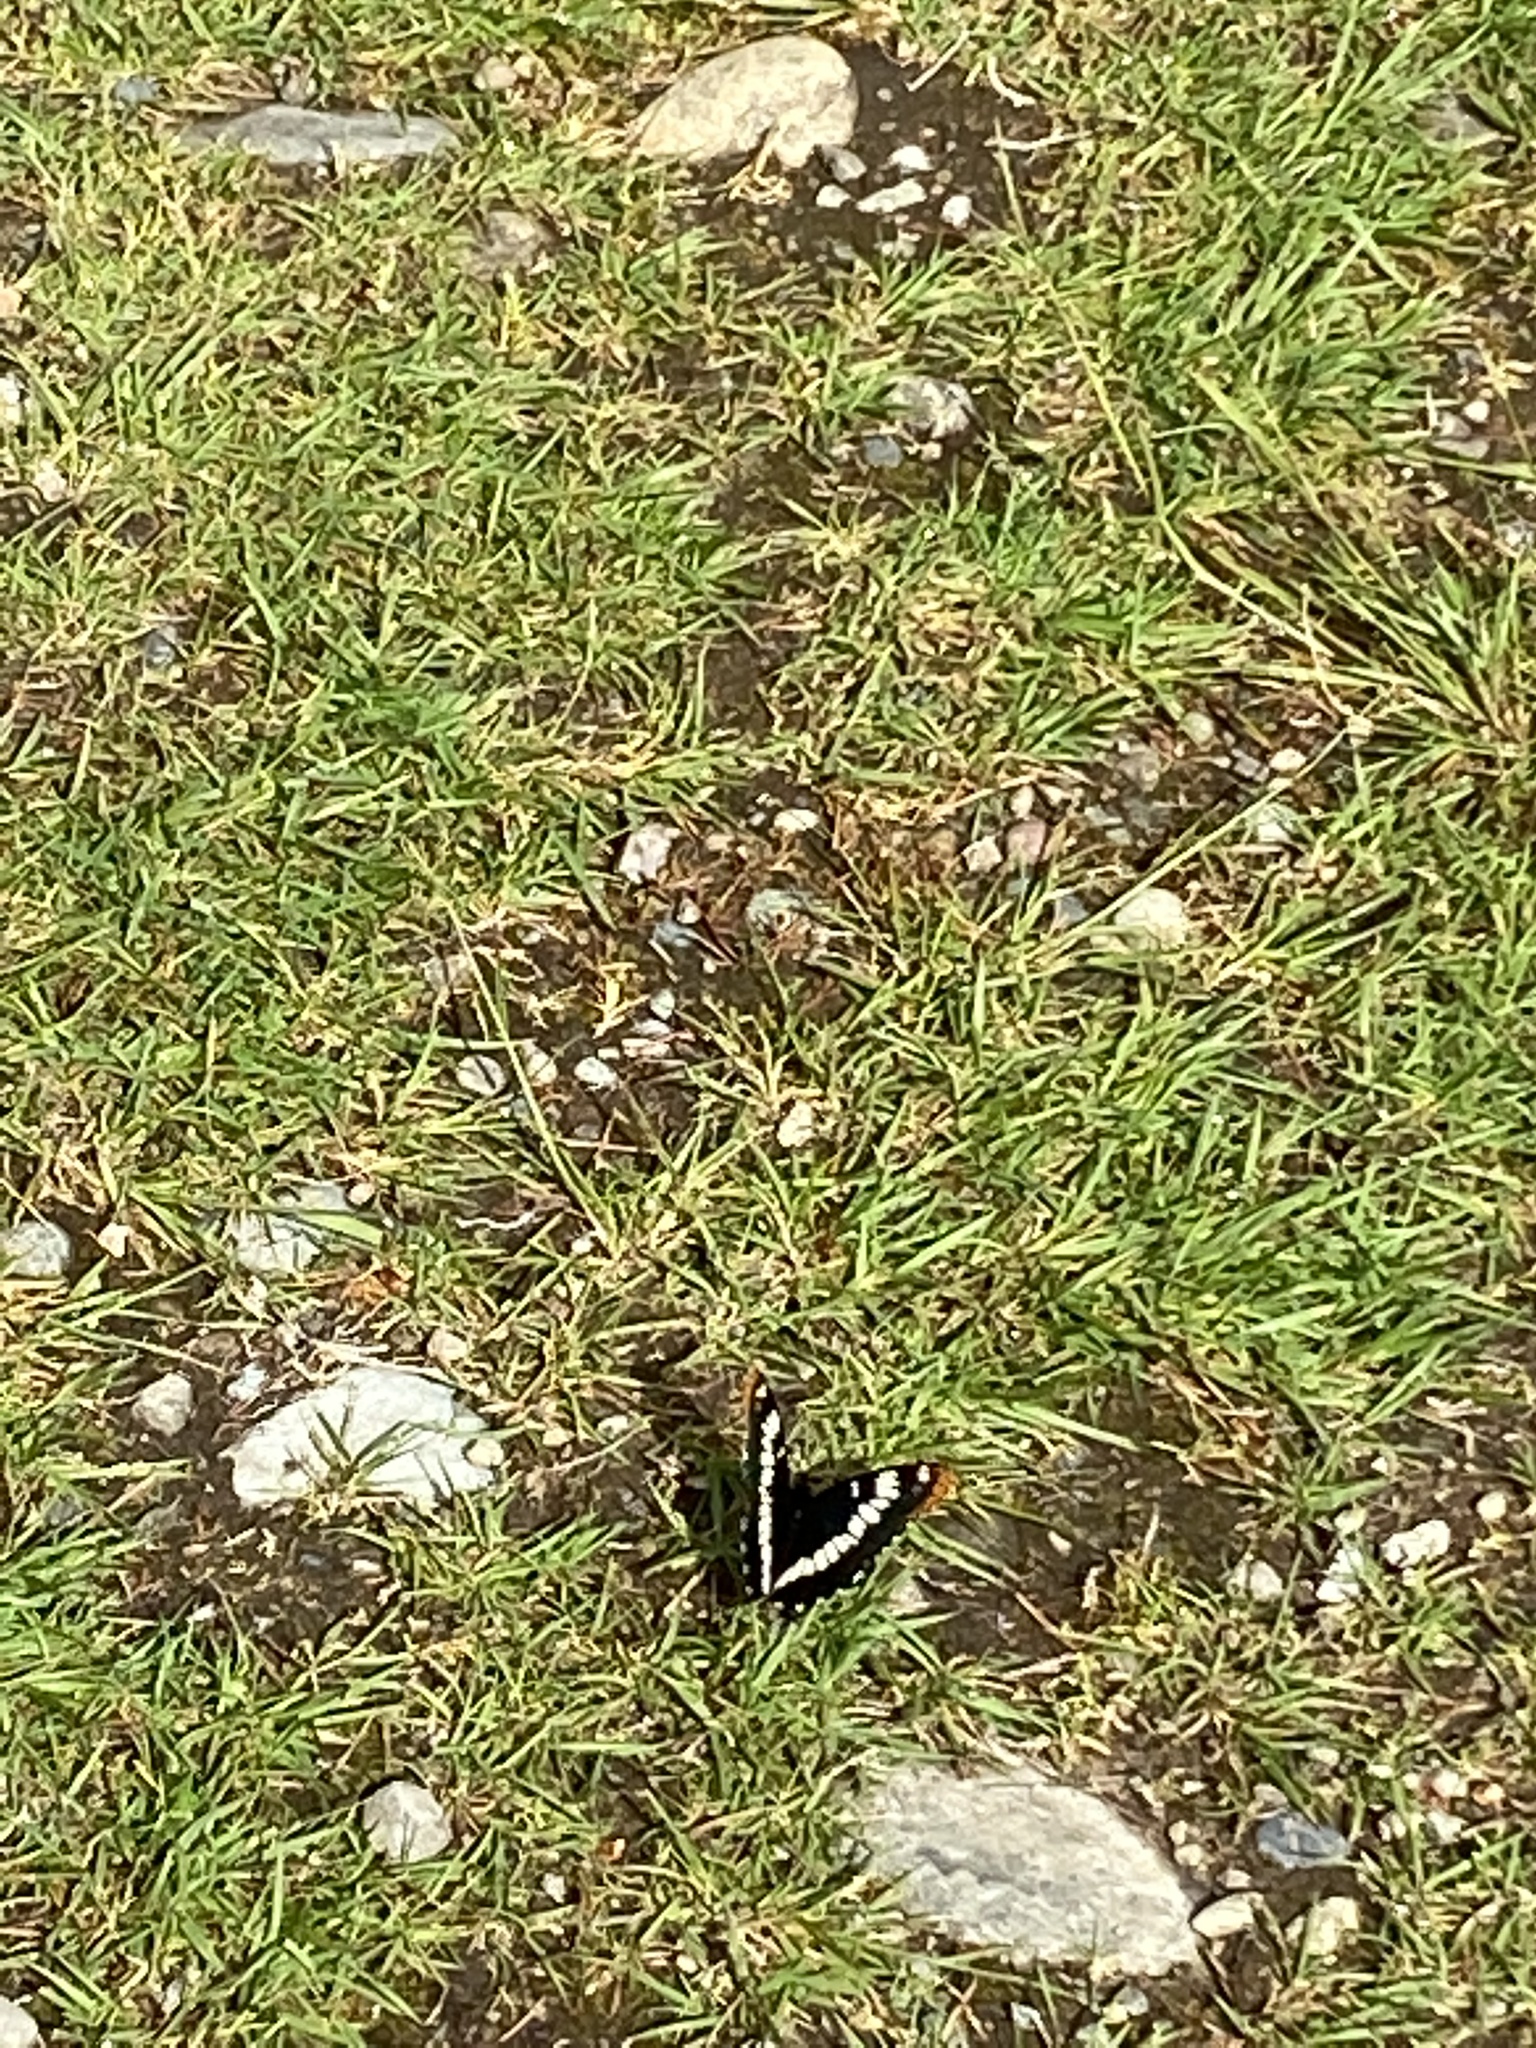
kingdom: Animalia
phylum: Arthropoda
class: Insecta
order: Lepidoptera
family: Nymphalidae
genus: Limenitis
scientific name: Limenitis lorquini
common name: Lorquin's admiral
